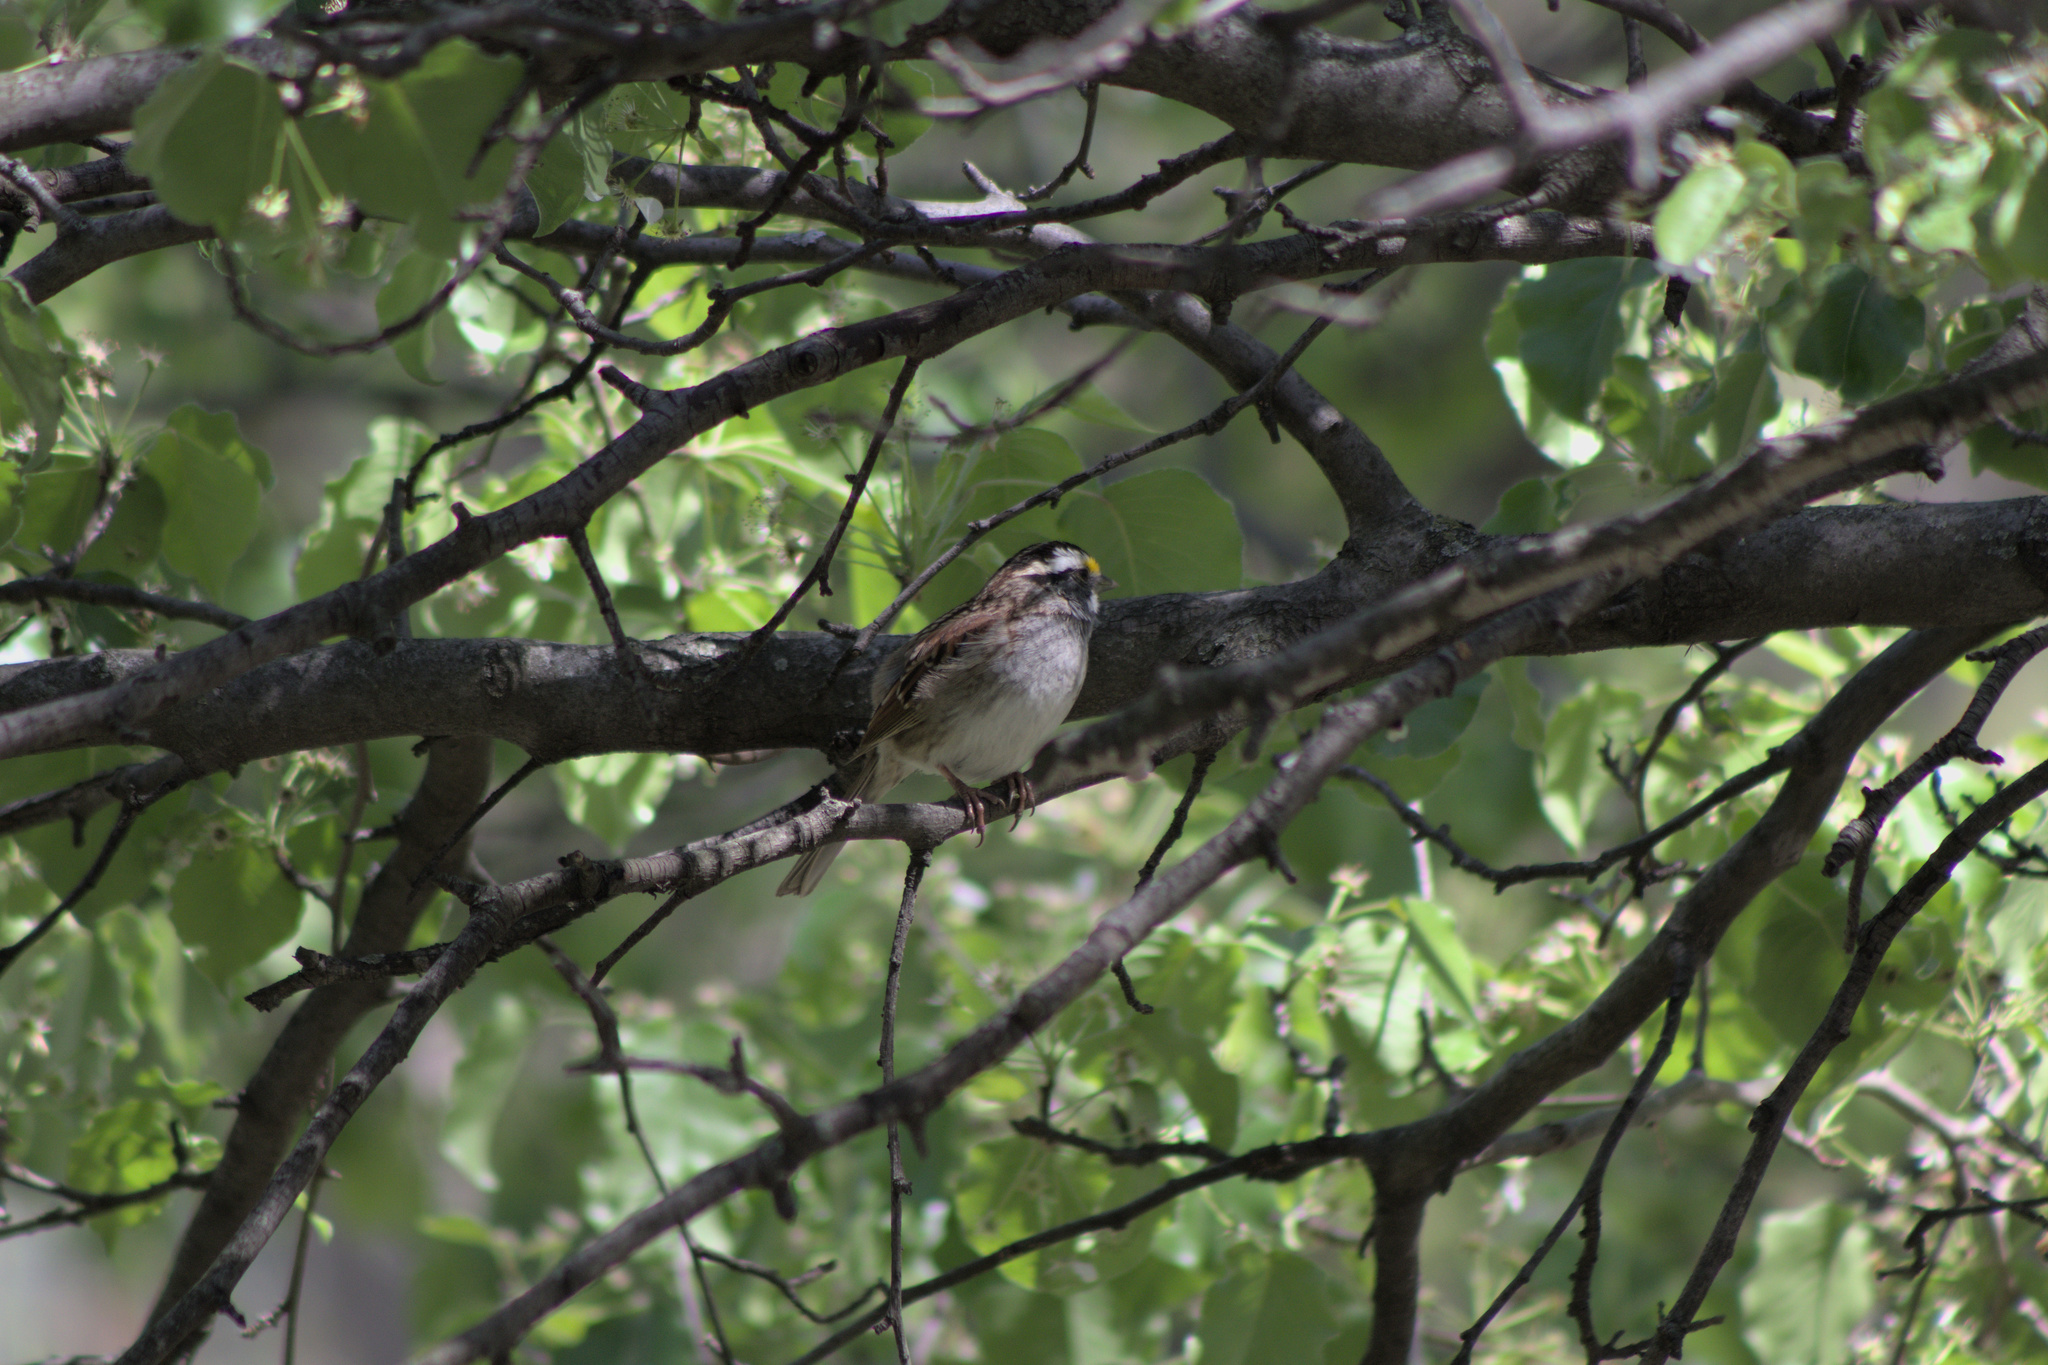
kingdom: Animalia
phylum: Chordata
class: Aves
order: Passeriformes
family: Passerellidae
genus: Zonotrichia
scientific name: Zonotrichia albicollis
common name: White-throated sparrow
